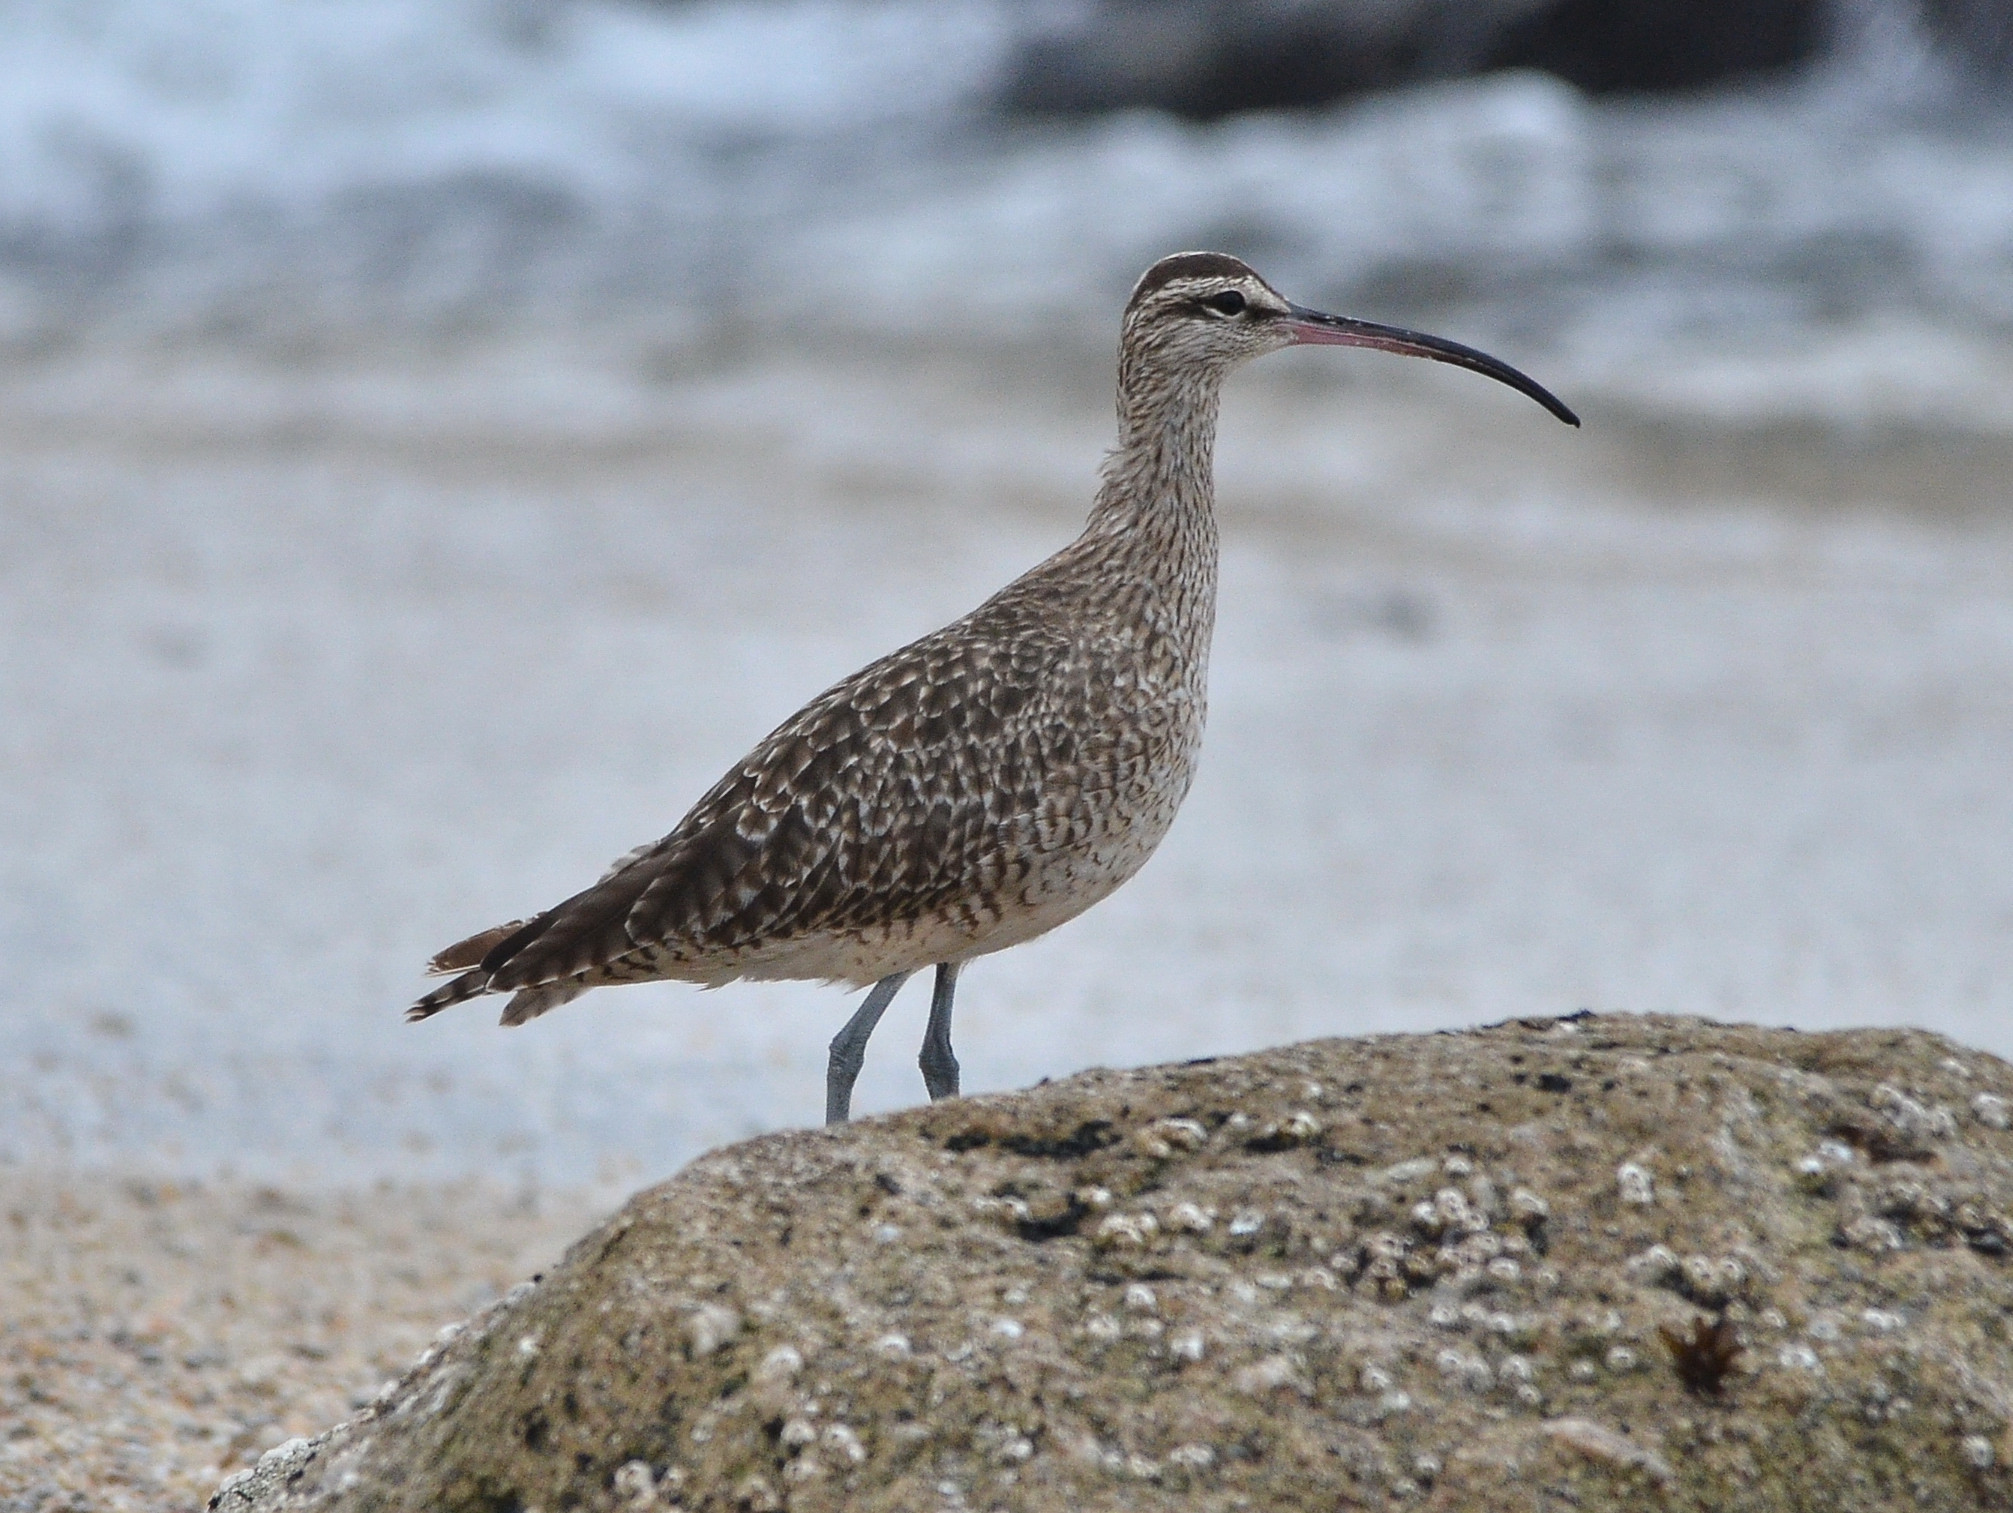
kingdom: Animalia
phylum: Chordata
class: Aves
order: Charadriiformes
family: Scolopacidae
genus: Numenius
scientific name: Numenius phaeopus
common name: Whimbrel
